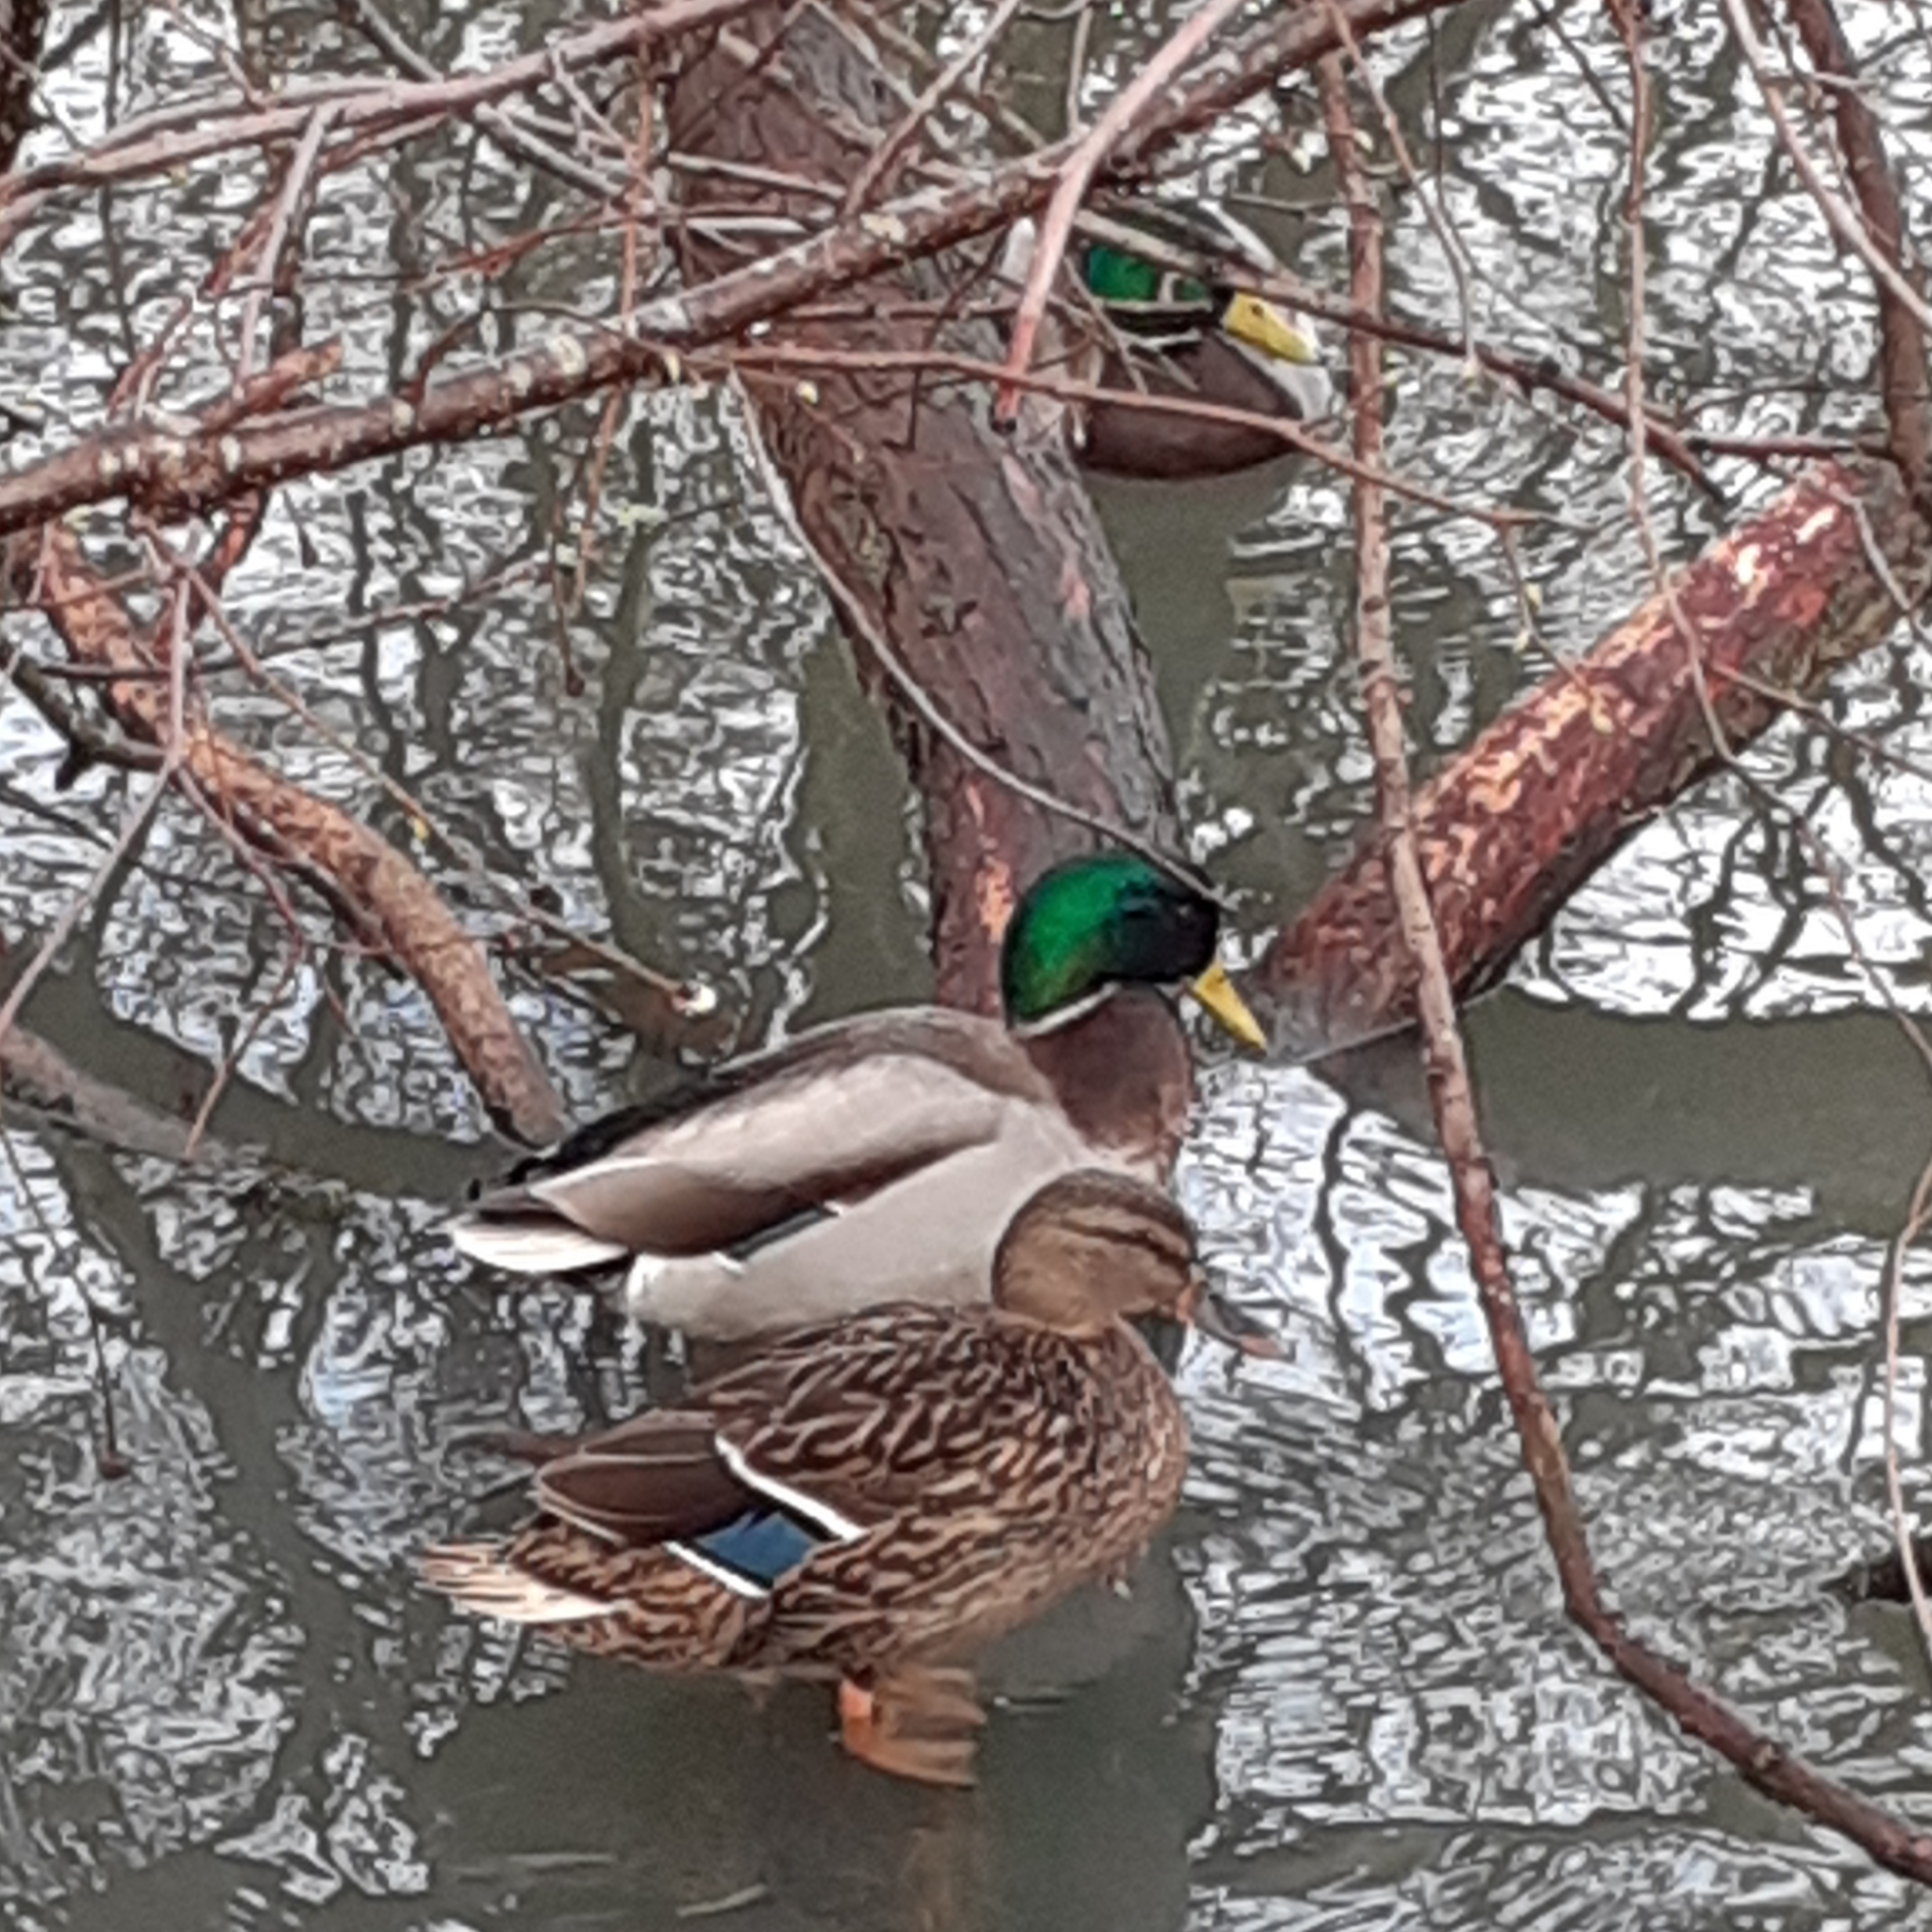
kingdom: Animalia
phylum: Chordata
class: Aves
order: Anseriformes
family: Anatidae
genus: Anas
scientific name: Anas platyrhynchos
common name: Mallard
